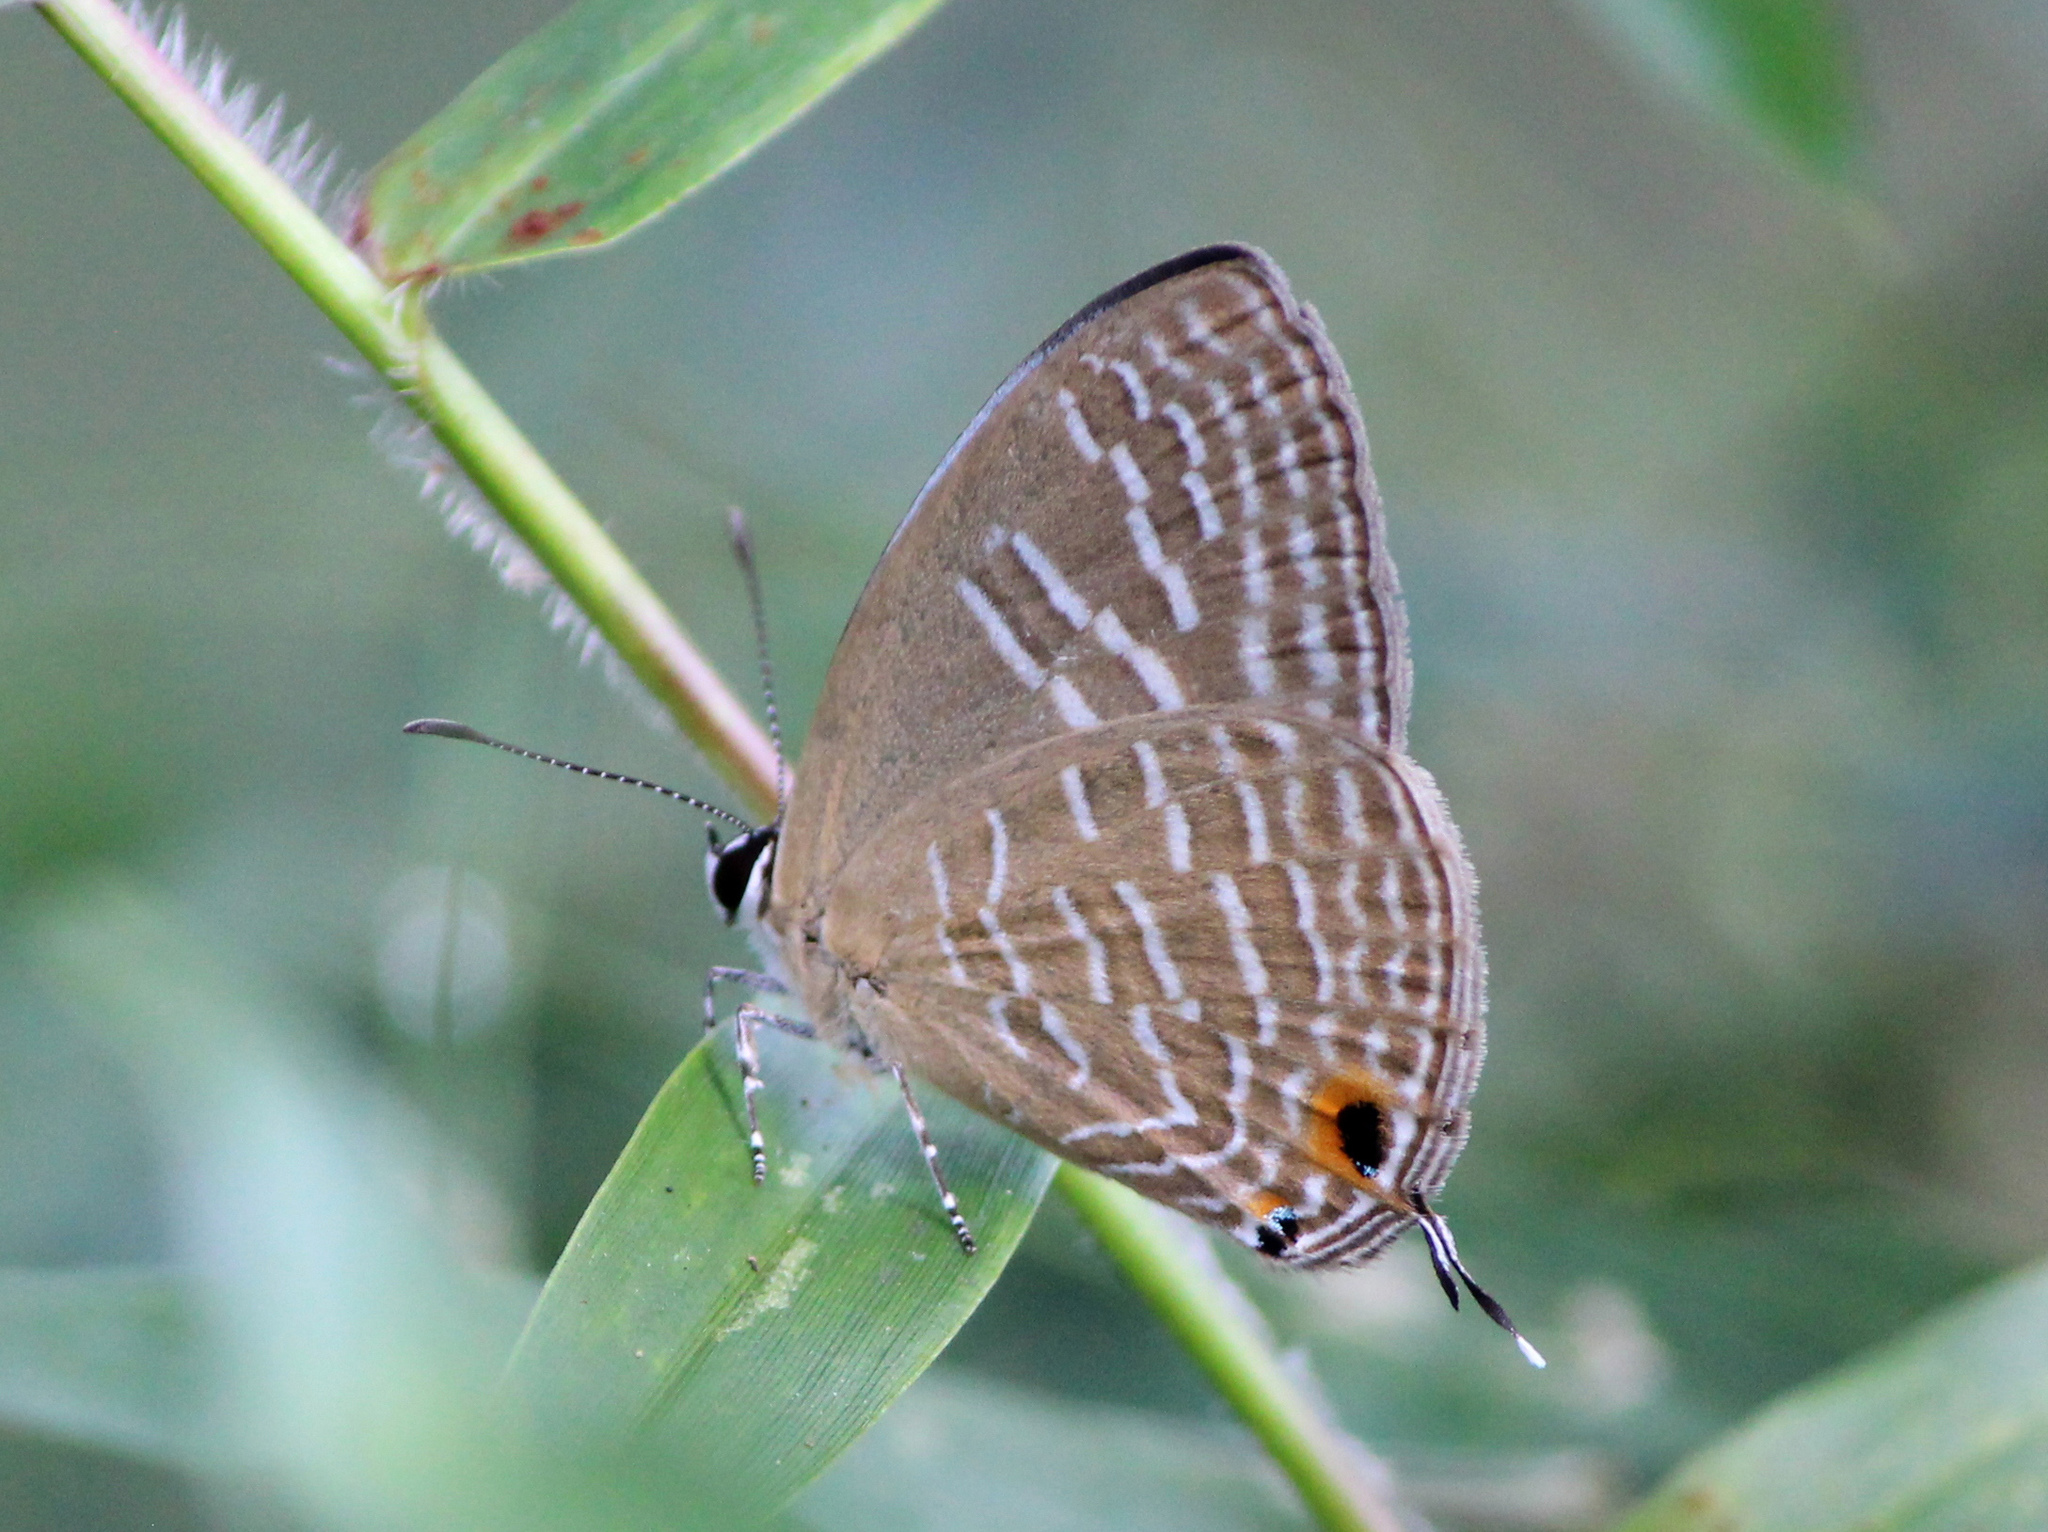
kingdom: Animalia
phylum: Arthropoda
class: Insecta
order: Lepidoptera
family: Lycaenidae
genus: Jamides
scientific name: Jamides alecto
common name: Metallic cerulean
